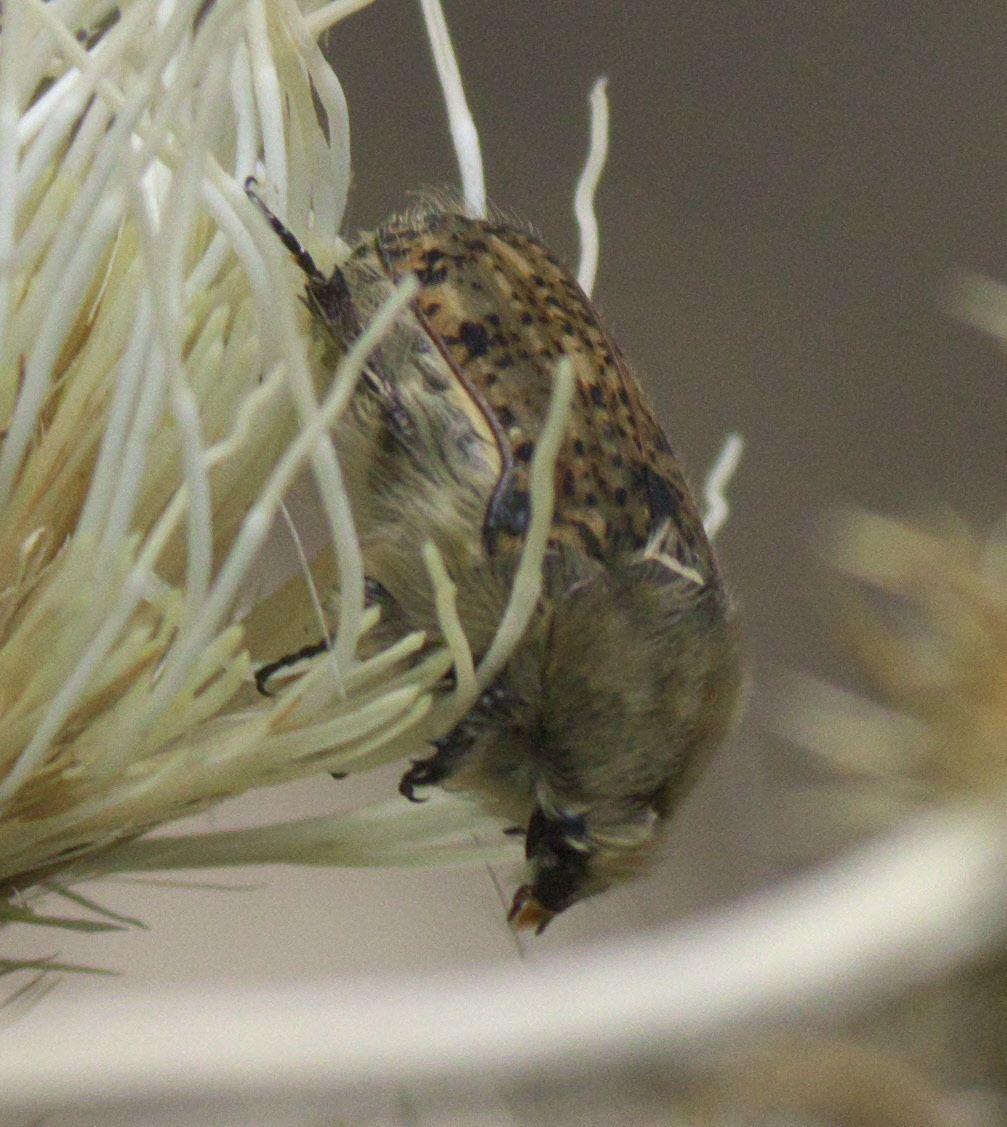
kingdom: Animalia
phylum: Arthropoda
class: Insecta
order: Coleoptera
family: Scarabaeidae
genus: Euphoria
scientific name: Euphoria inda
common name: Bumble flower beetle
